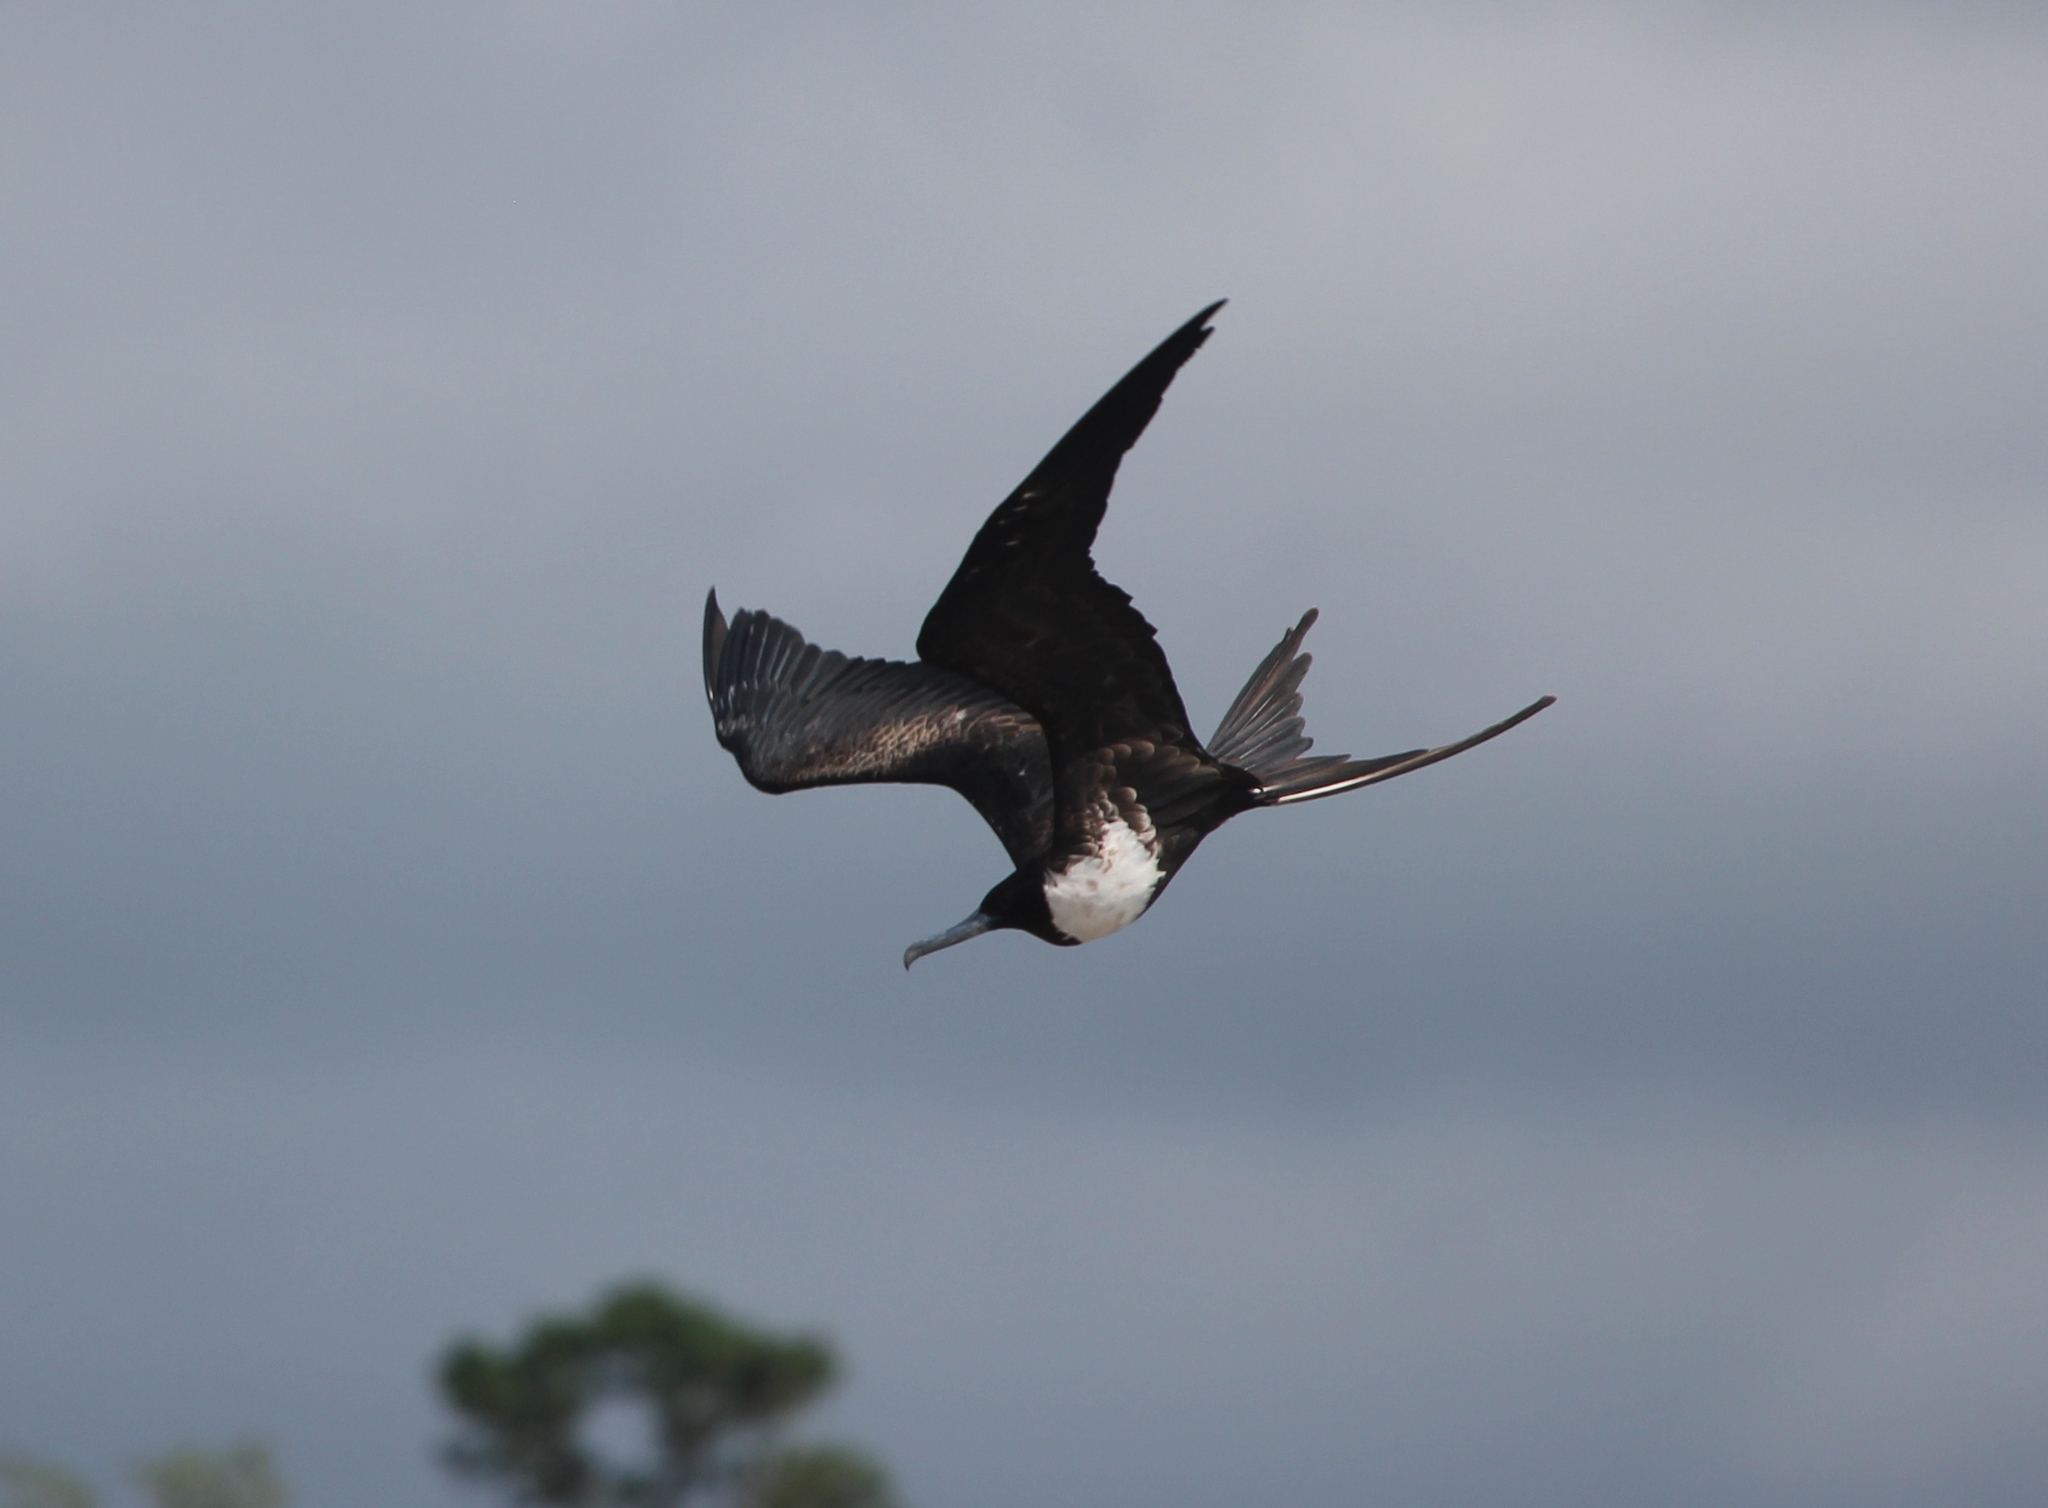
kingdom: Animalia
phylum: Chordata
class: Aves
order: Suliformes
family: Fregatidae
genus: Fregata
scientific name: Fregata magnificens
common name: Magnificent frigatebird
